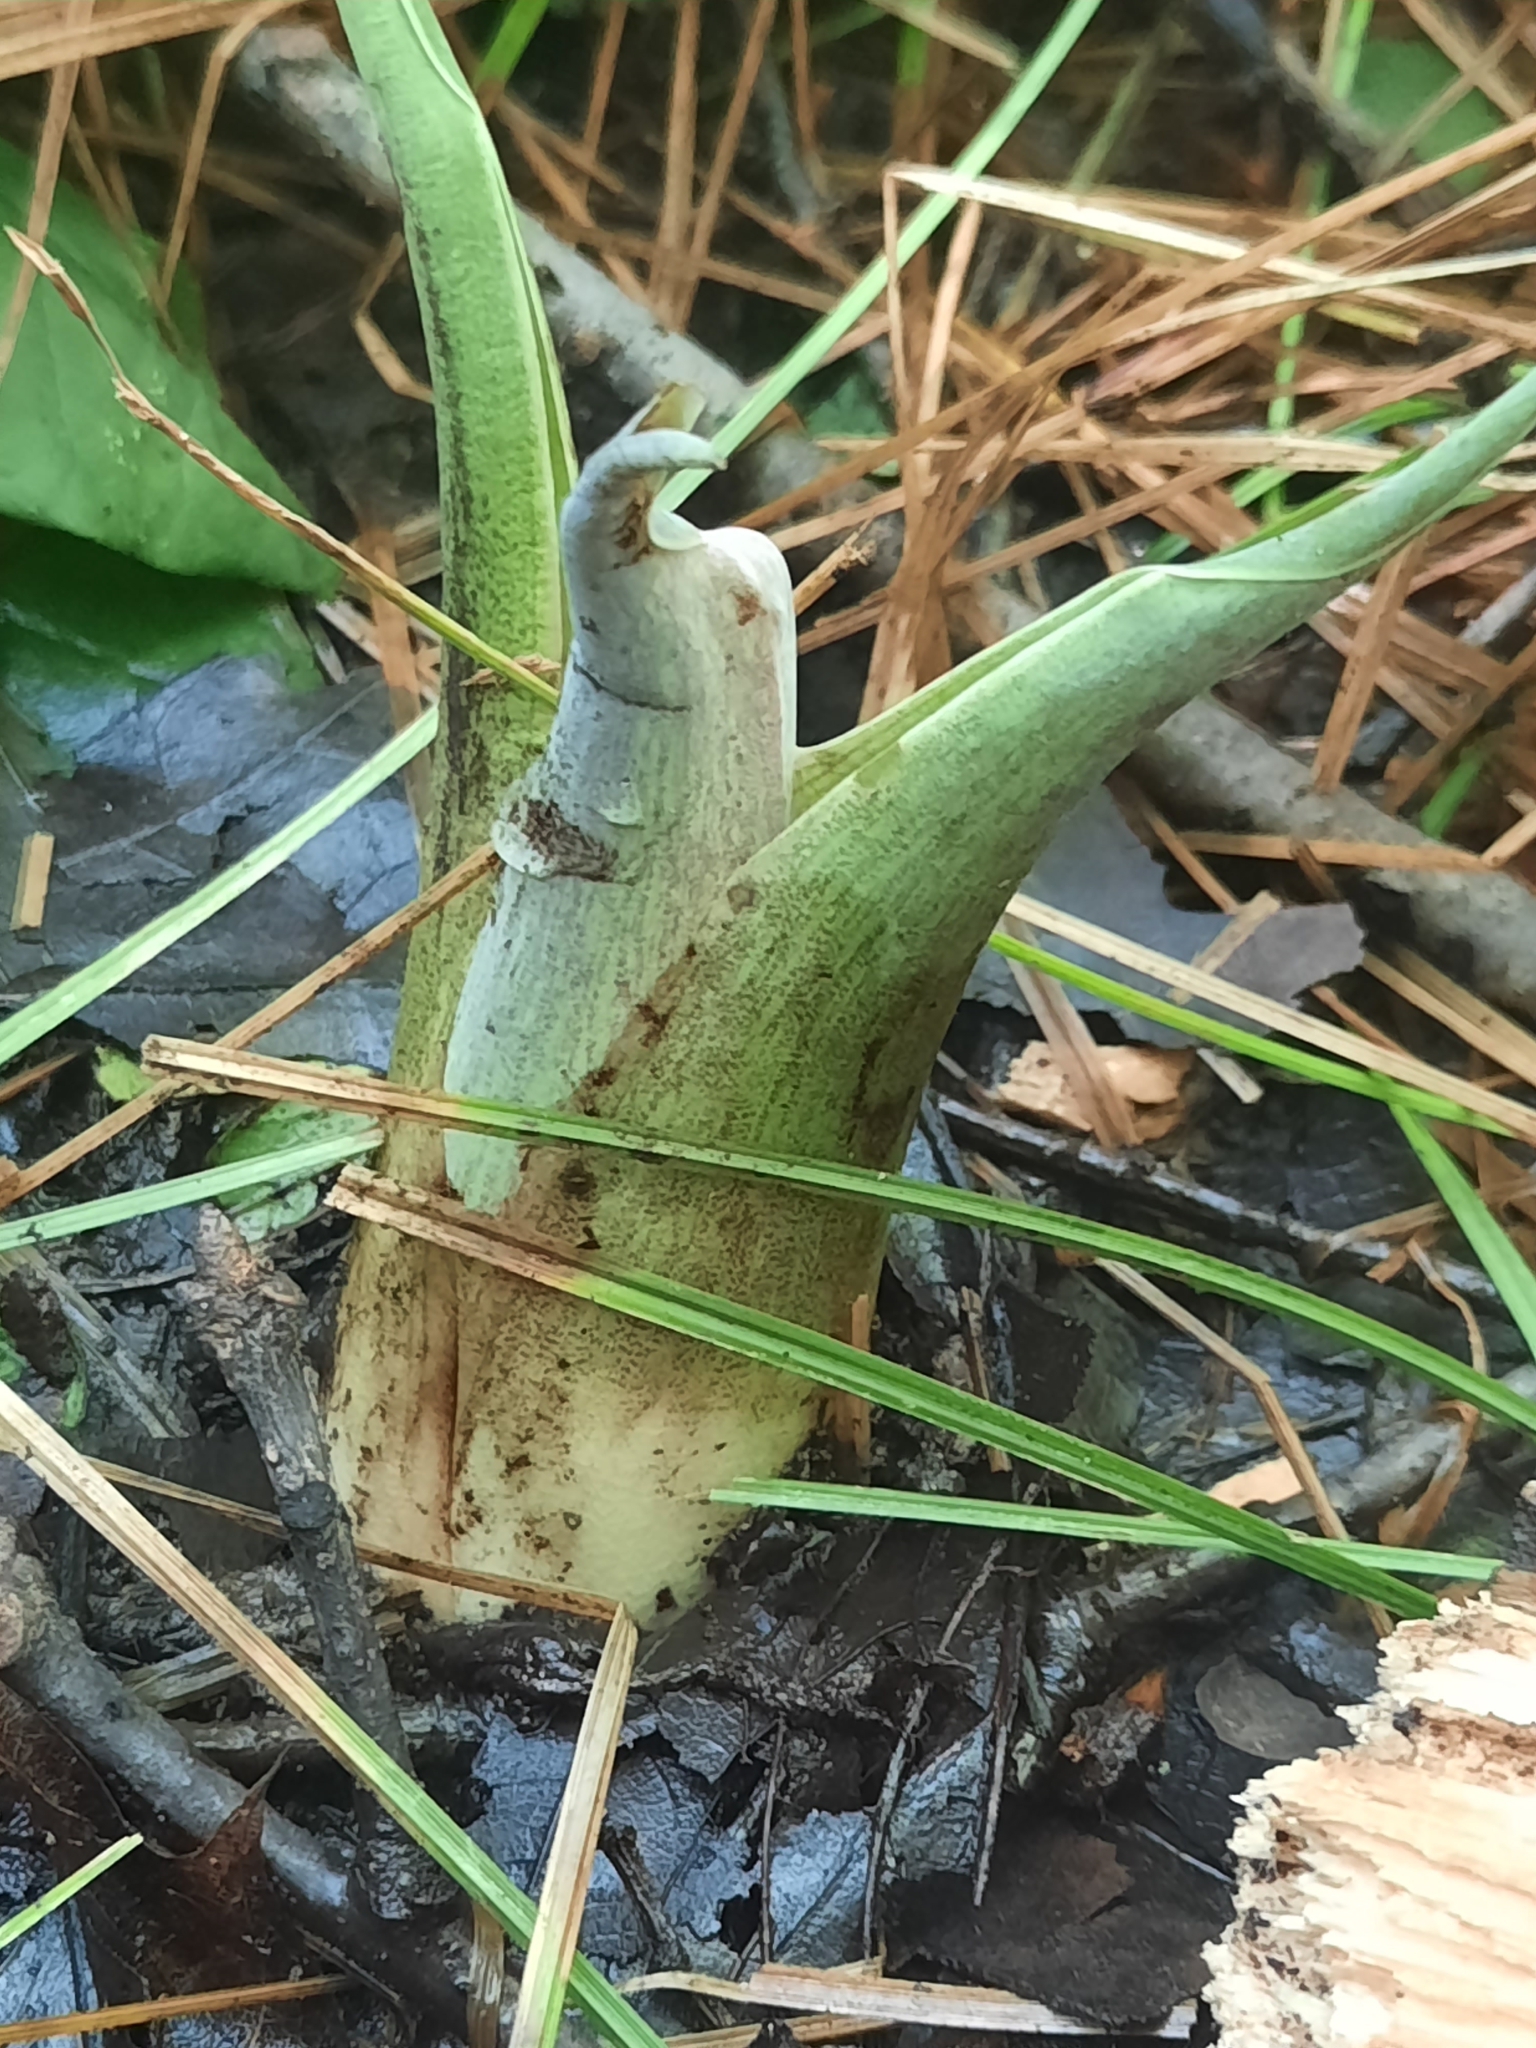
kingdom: Plantae
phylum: Tracheophyta
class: Liliopsida
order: Alismatales
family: Araceae
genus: Symplocarpus
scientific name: Symplocarpus foetidus
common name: Eastern skunk cabbage
